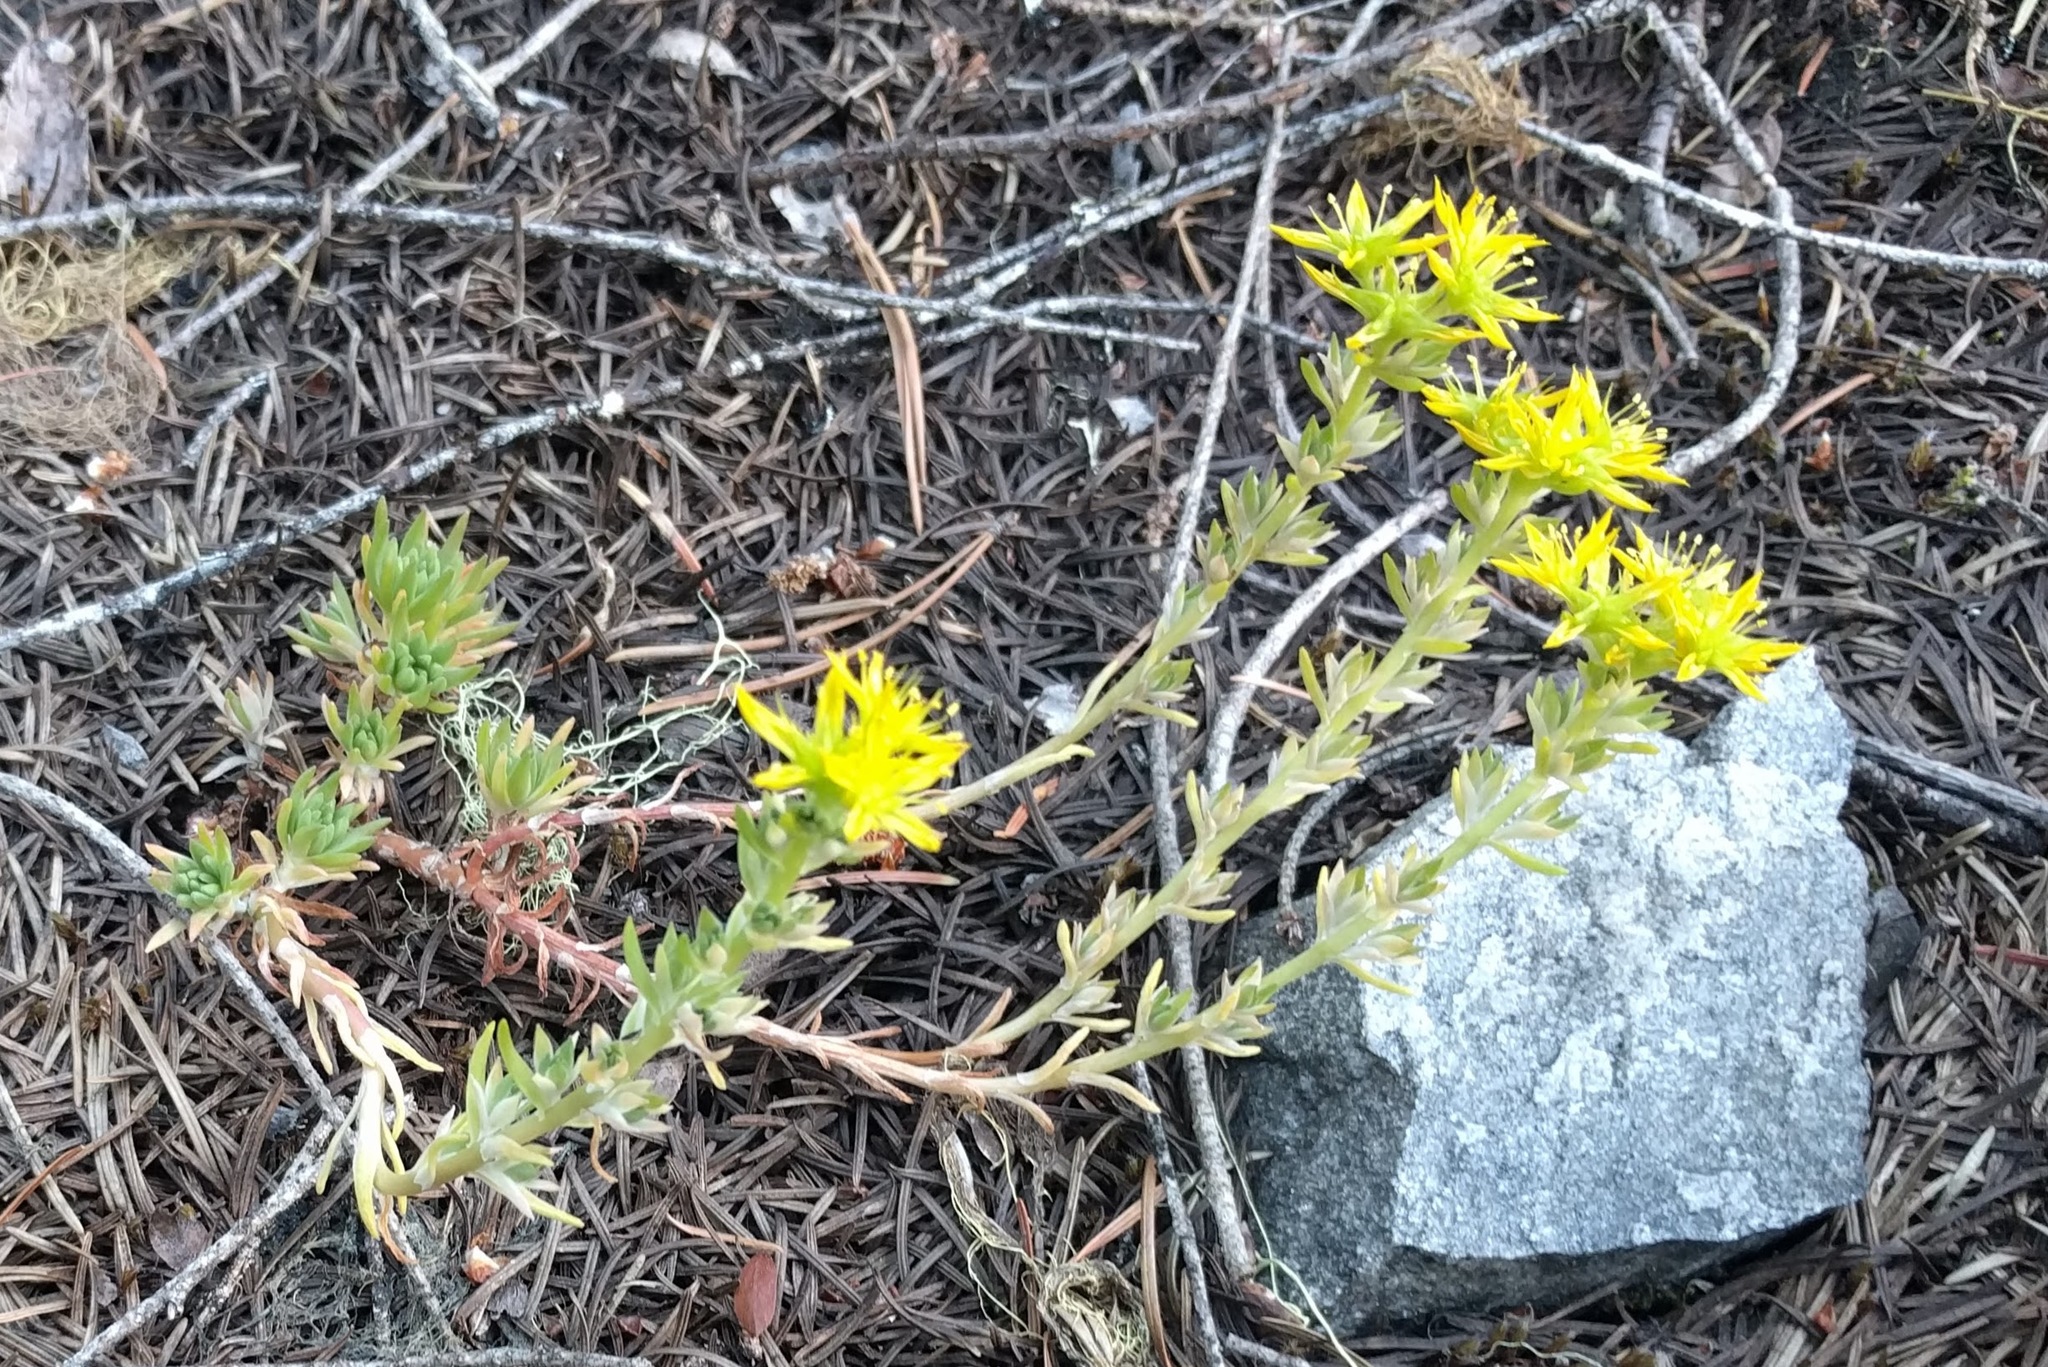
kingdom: Plantae
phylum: Tracheophyta
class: Magnoliopsida
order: Saxifragales
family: Crassulaceae
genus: Sedum
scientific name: Sedum stenopetalum
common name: Narrow-petaled stonecrop
